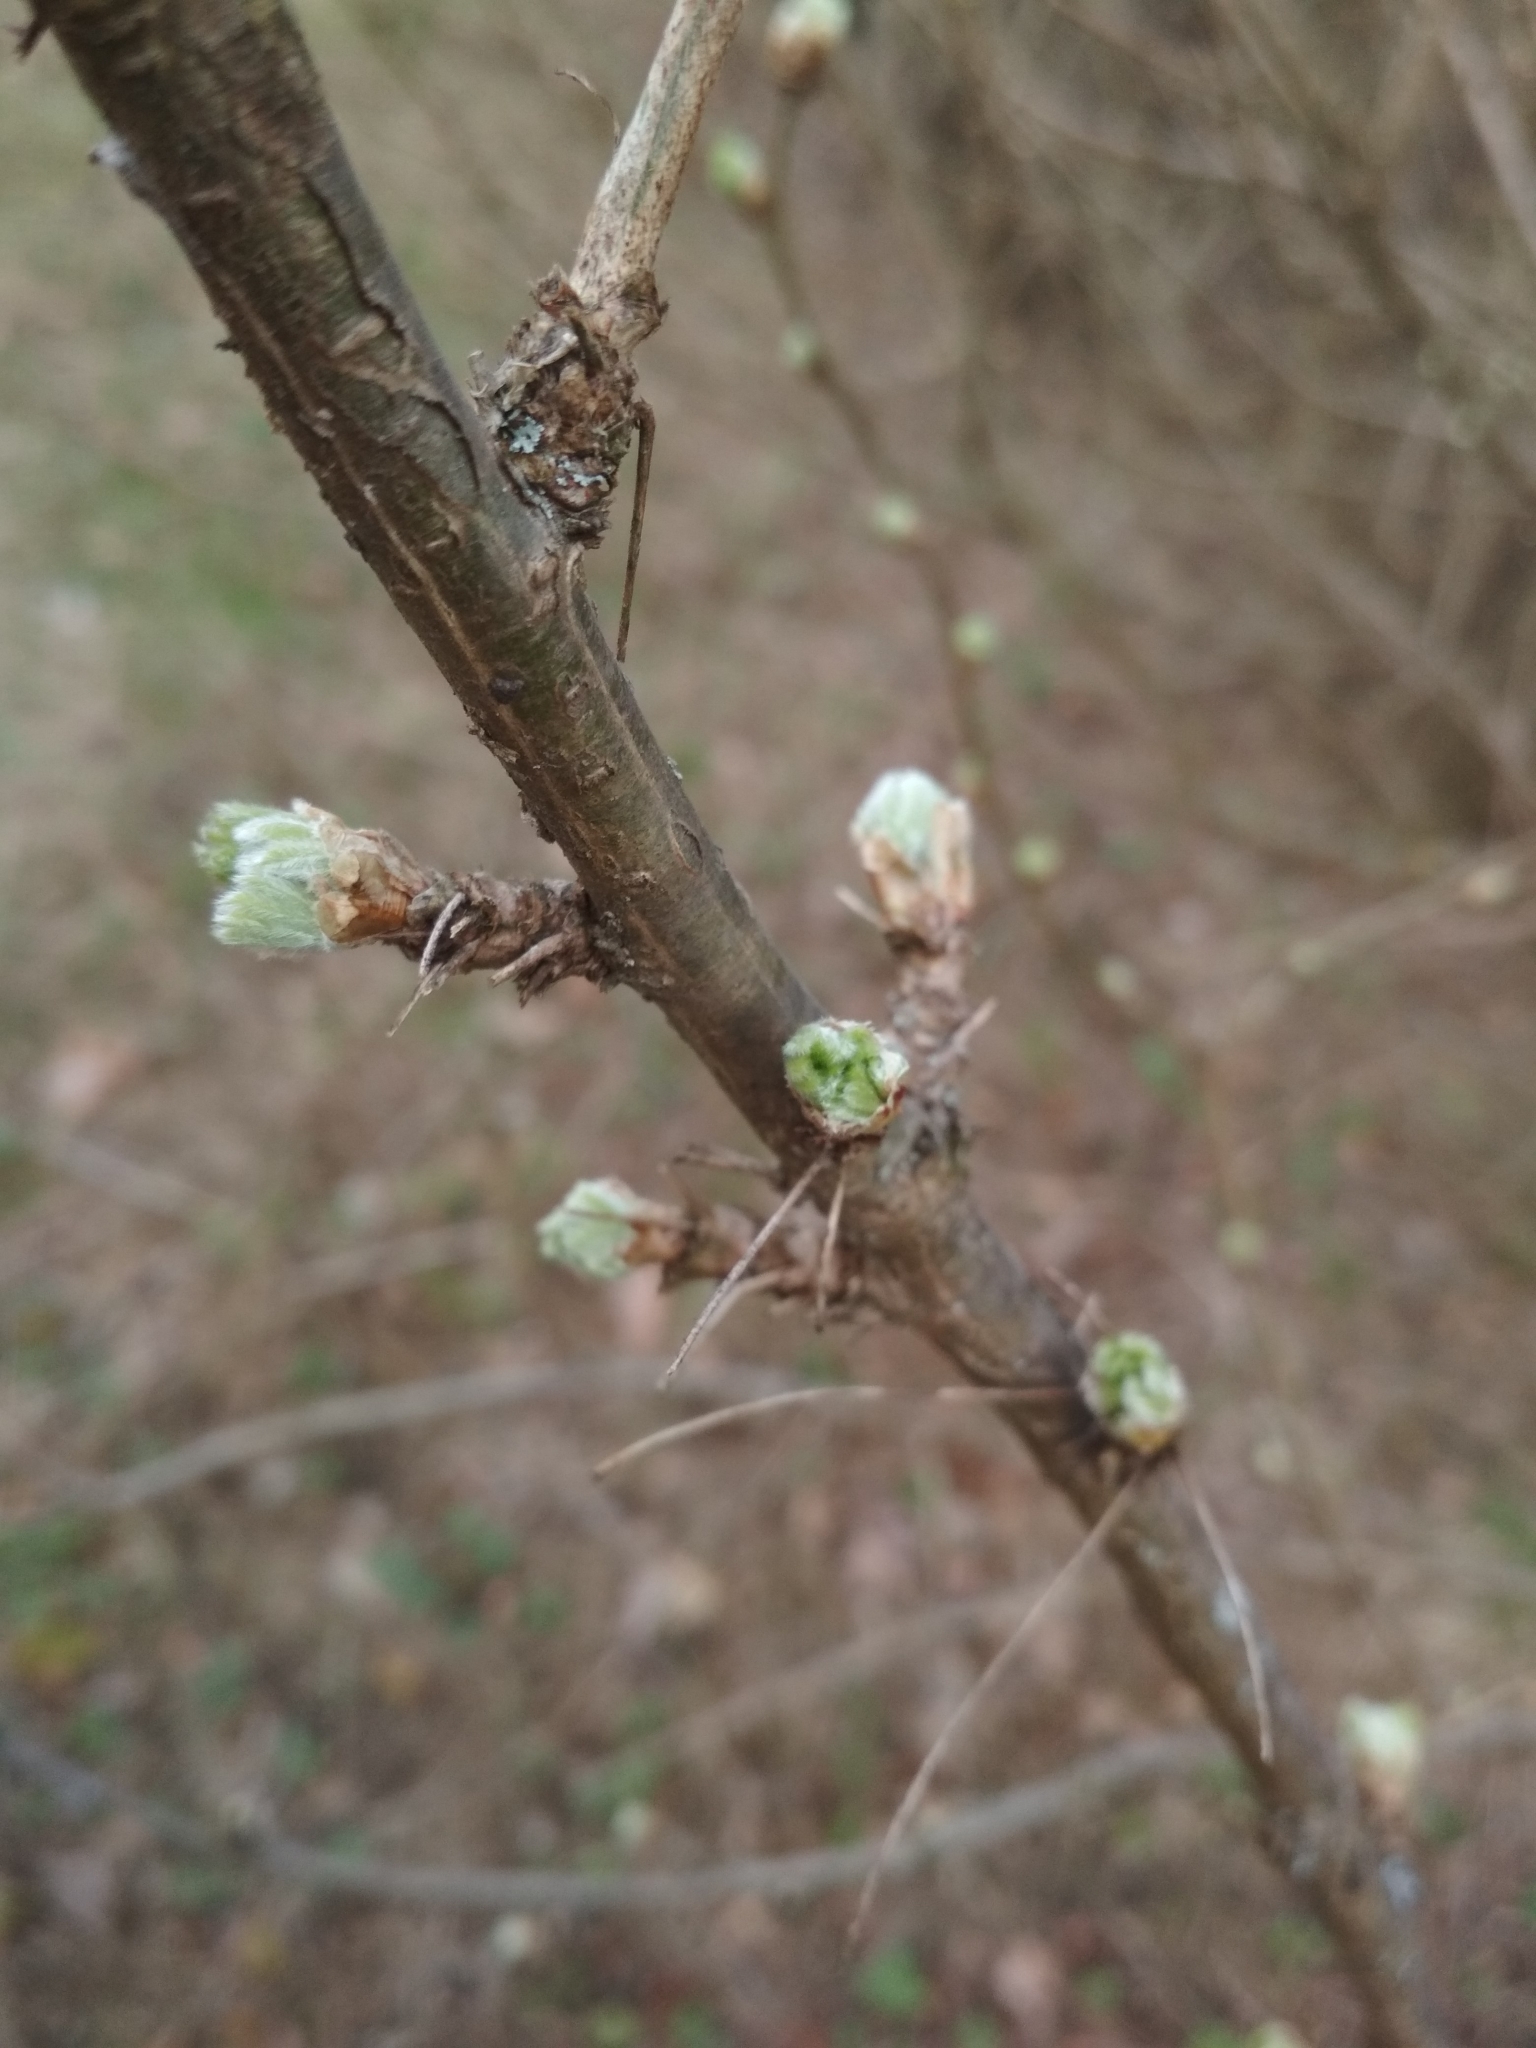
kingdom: Plantae
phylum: Tracheophyta
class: Magnoliopsida
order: Fabales
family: Fabaceae
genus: Caragana
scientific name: Caragana arborescens
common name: Siberian peashrub
